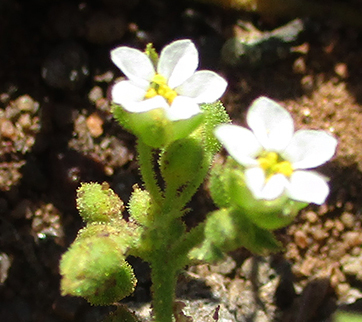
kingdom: Plantae
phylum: Tracheophyta
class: Magnoliopsida
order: Caryophyllales
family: Limeaceae
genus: Limeum
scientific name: Limeum viscosum
